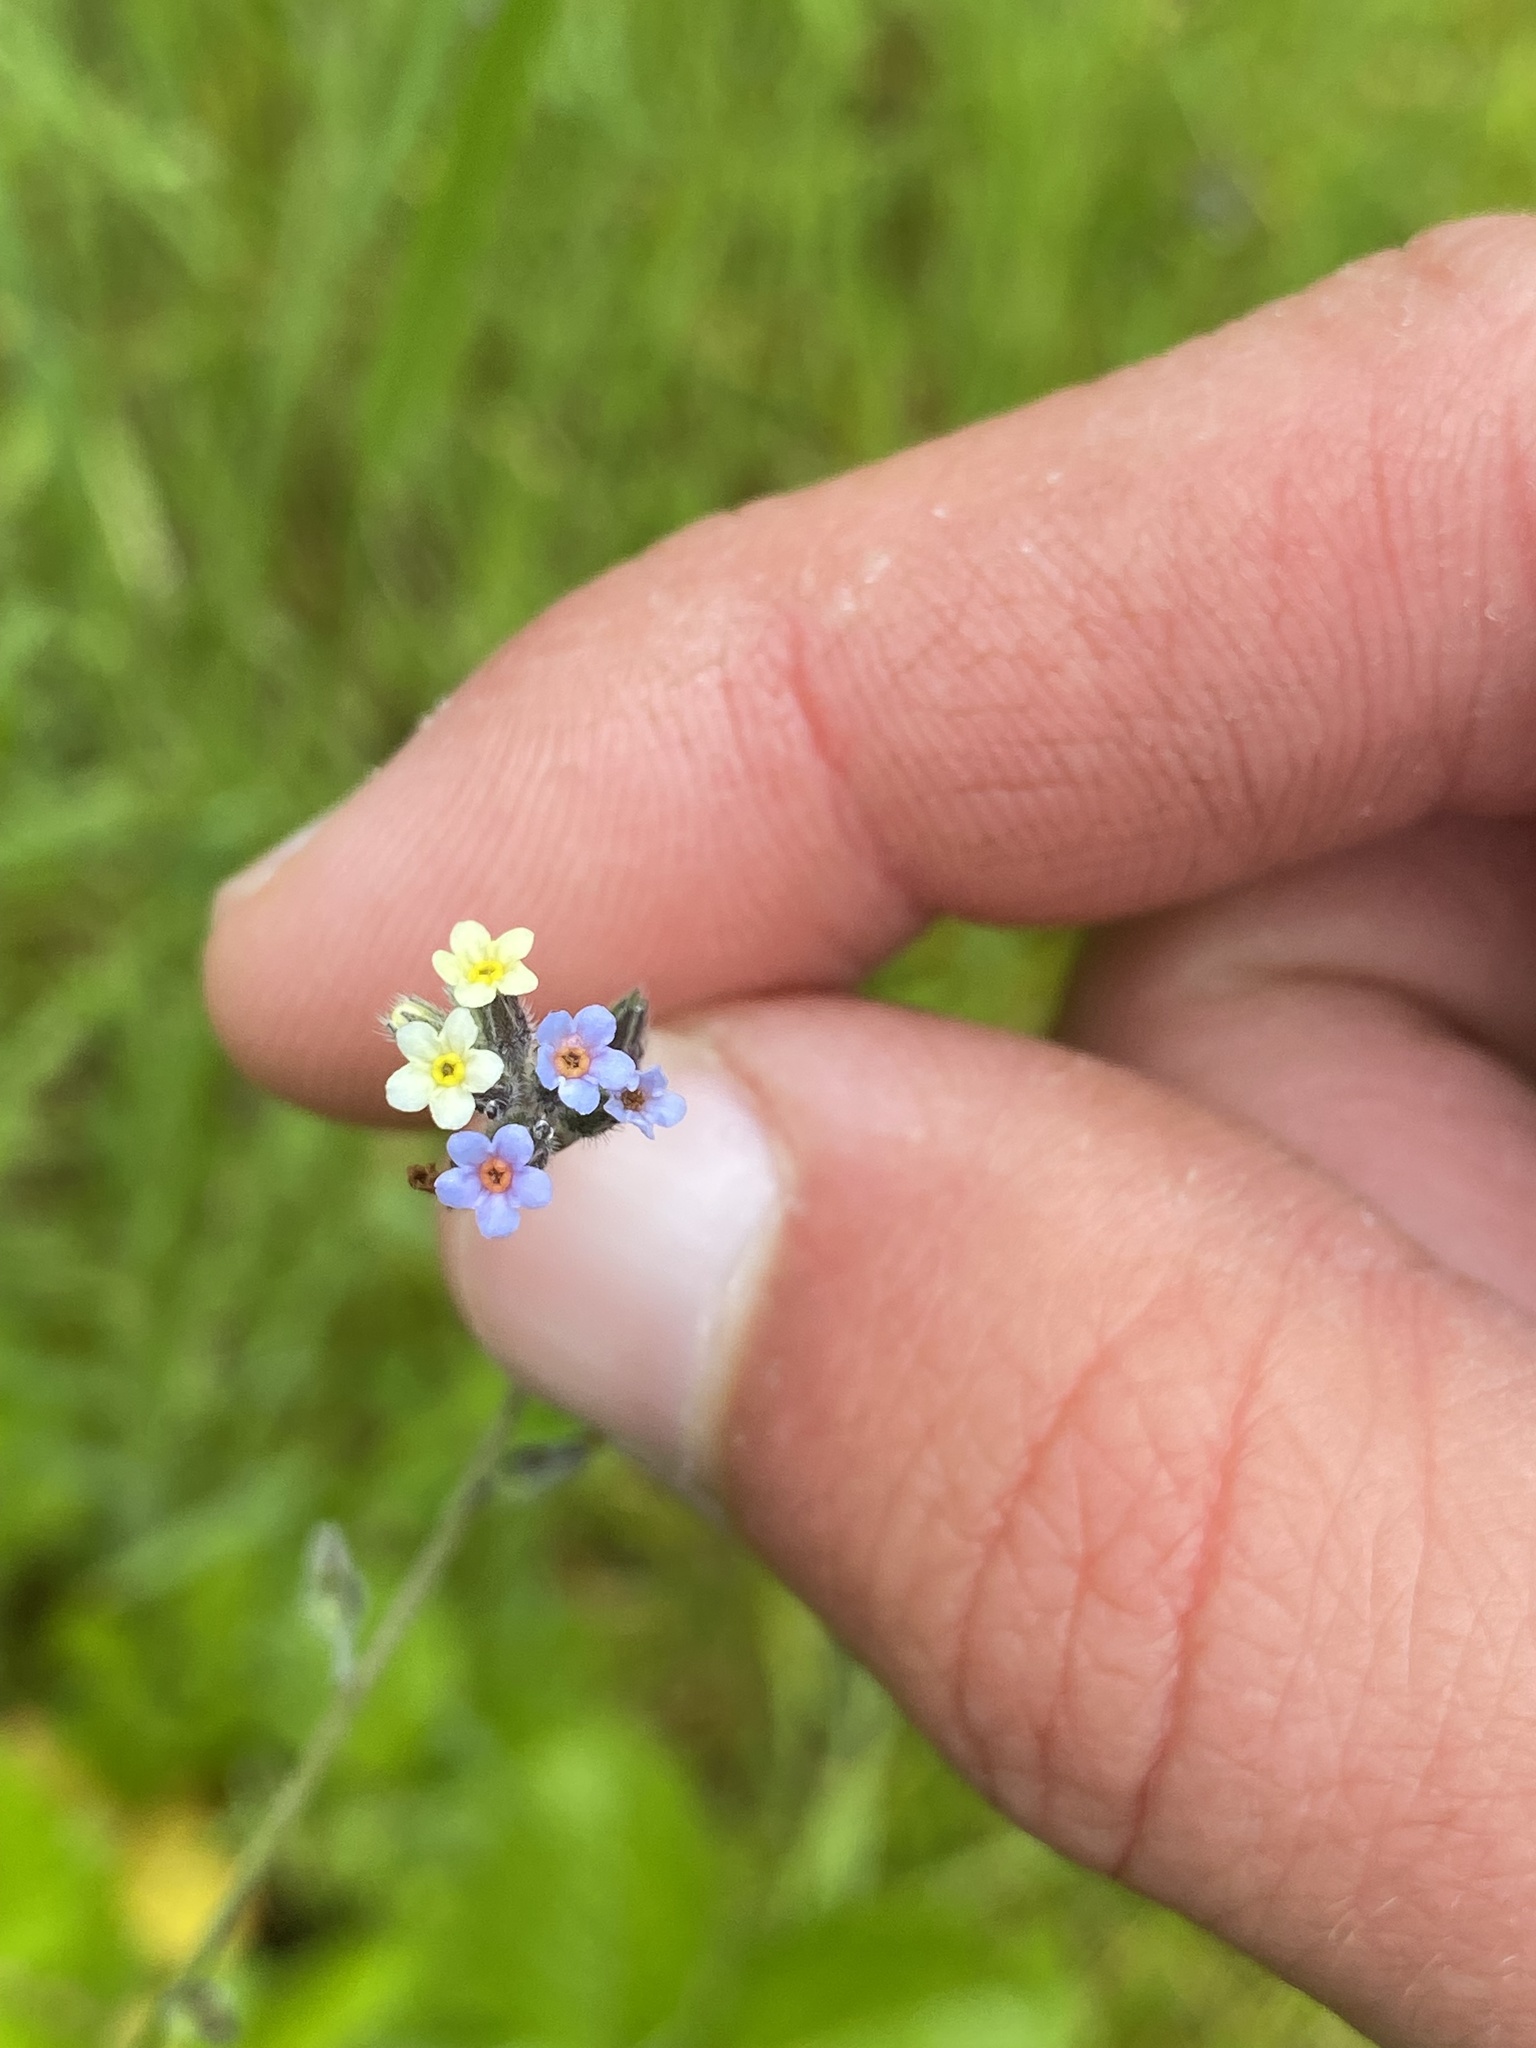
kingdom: Plantae
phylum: Tracheophyta
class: Magnoliopsida
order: Boraginales
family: Boraginaceae
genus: Myosotis
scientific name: Myosotis discolor
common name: Changing forget-me-not
